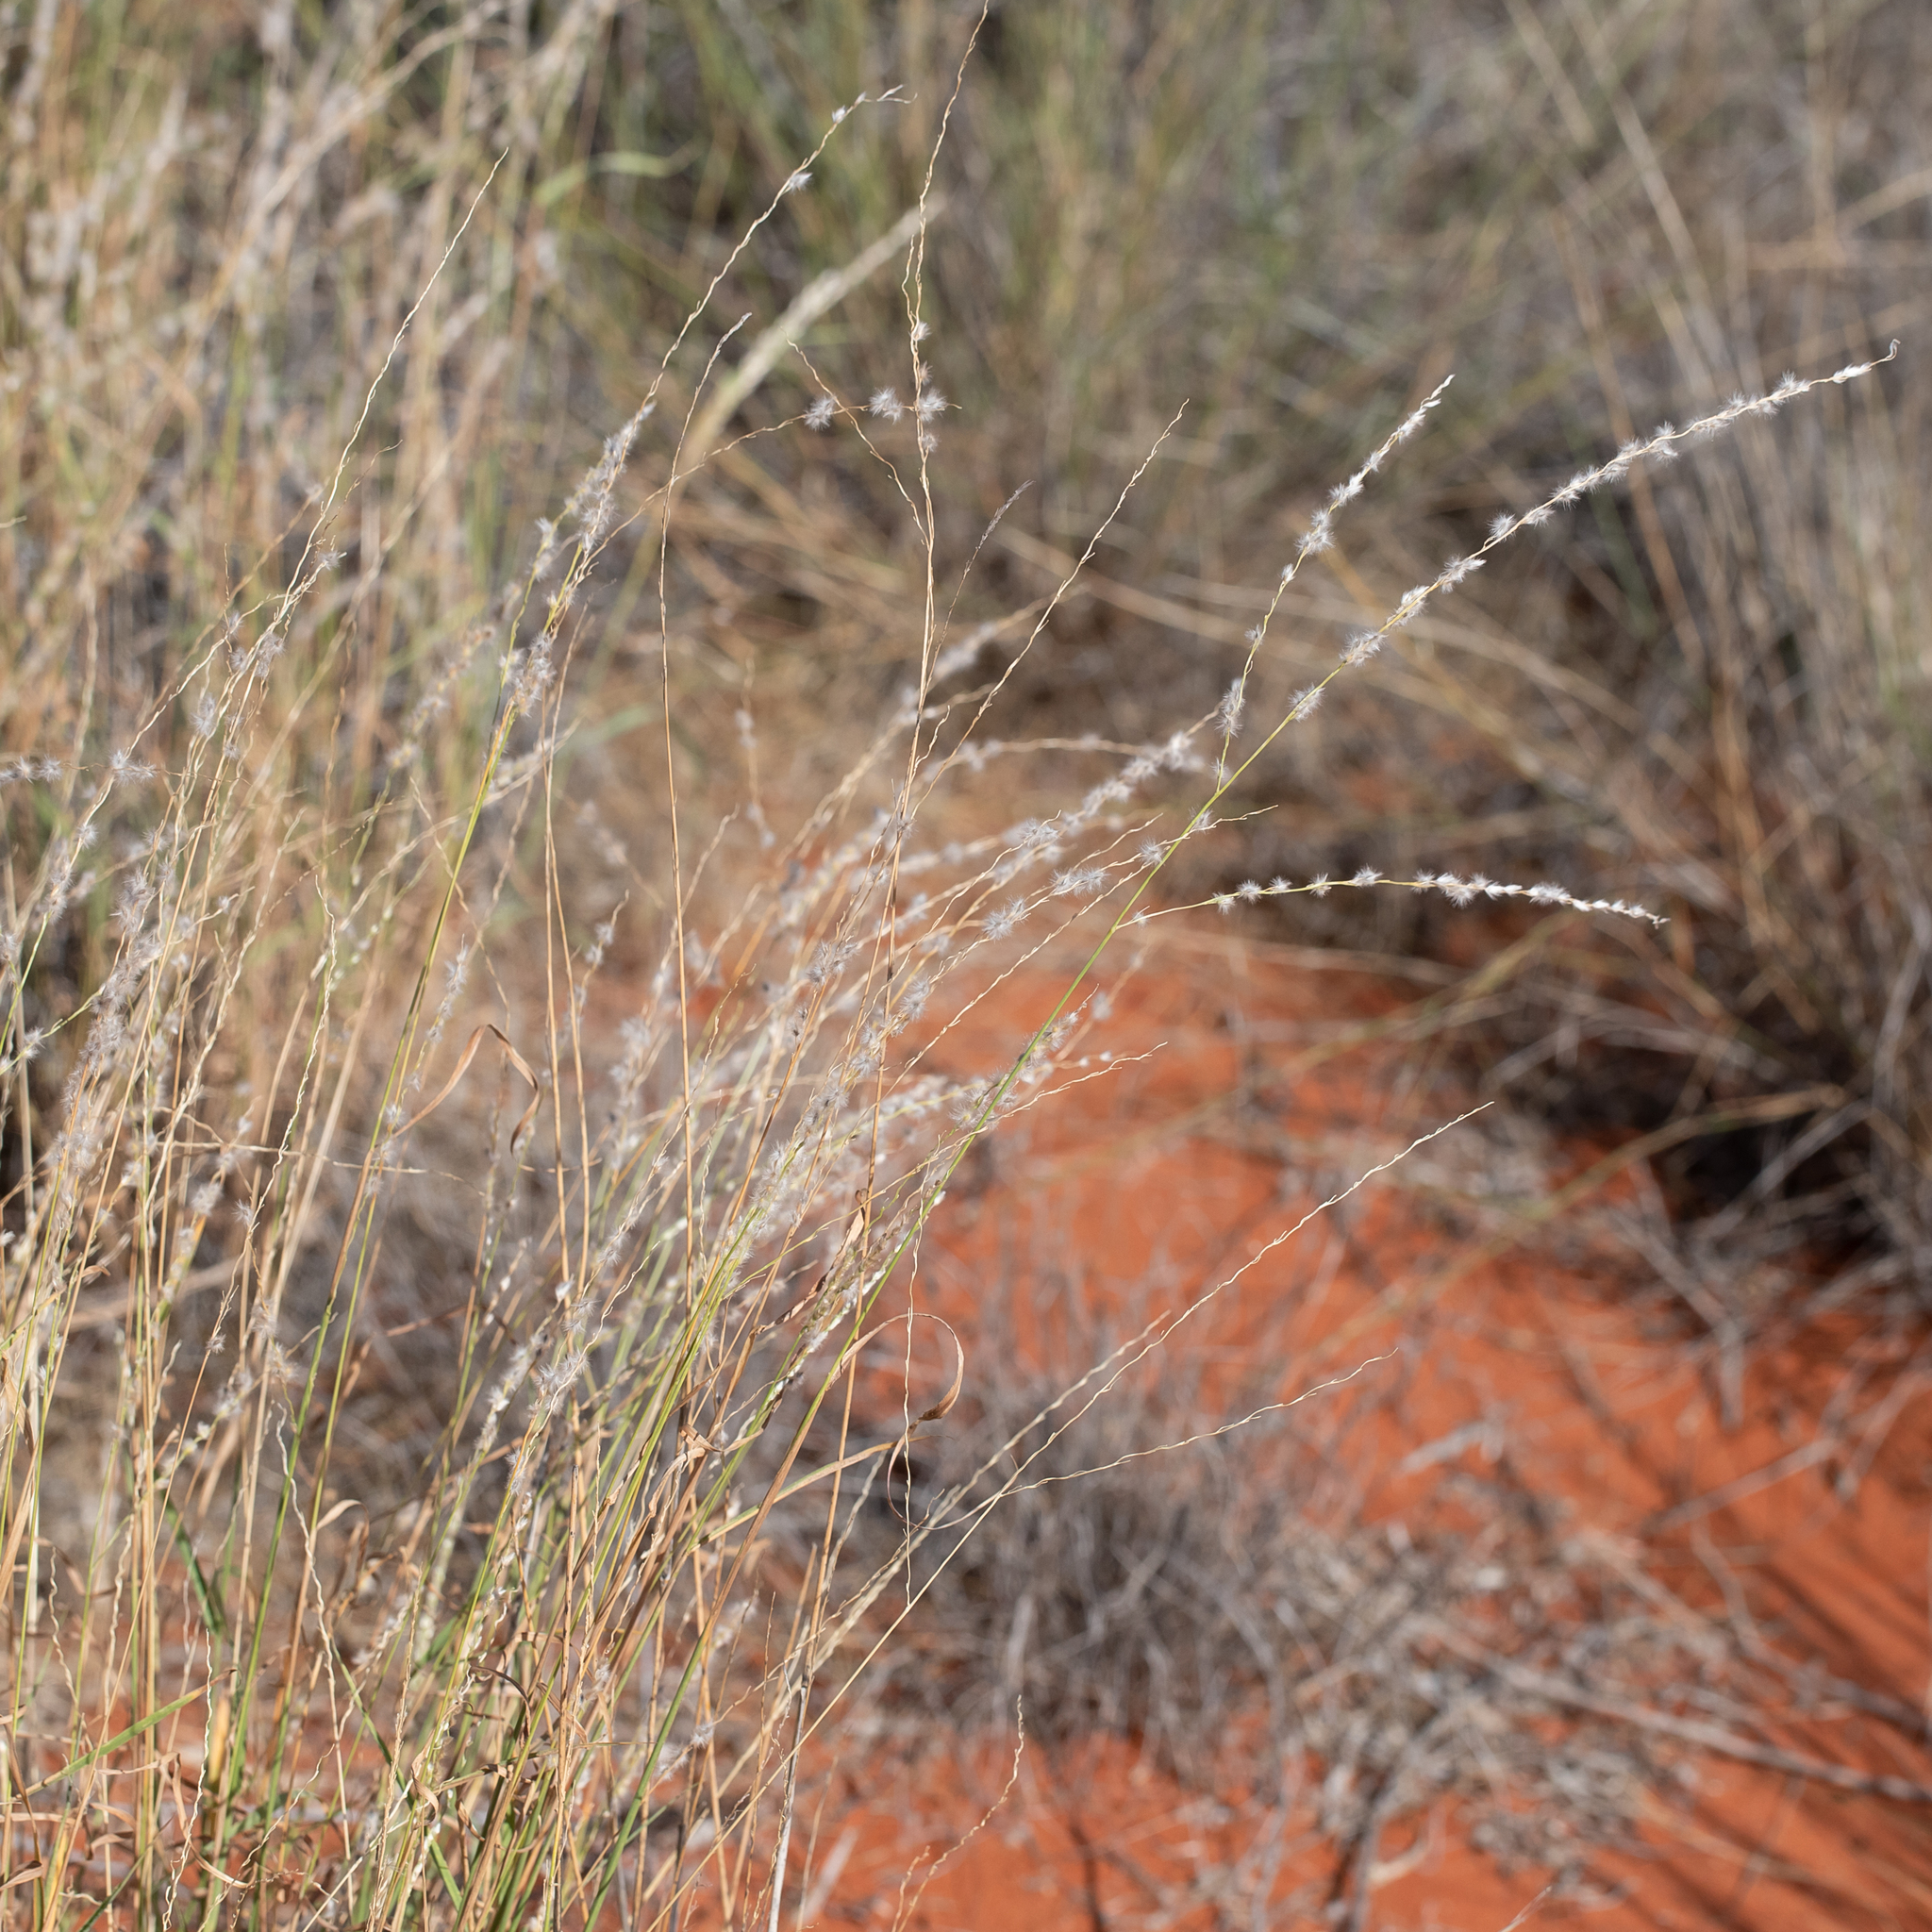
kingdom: Plantae
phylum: Tracheophyta
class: Liliopsida
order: Poales
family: Poaceae
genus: Digitaria
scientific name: Digitaria brownii
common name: Cotton grass
